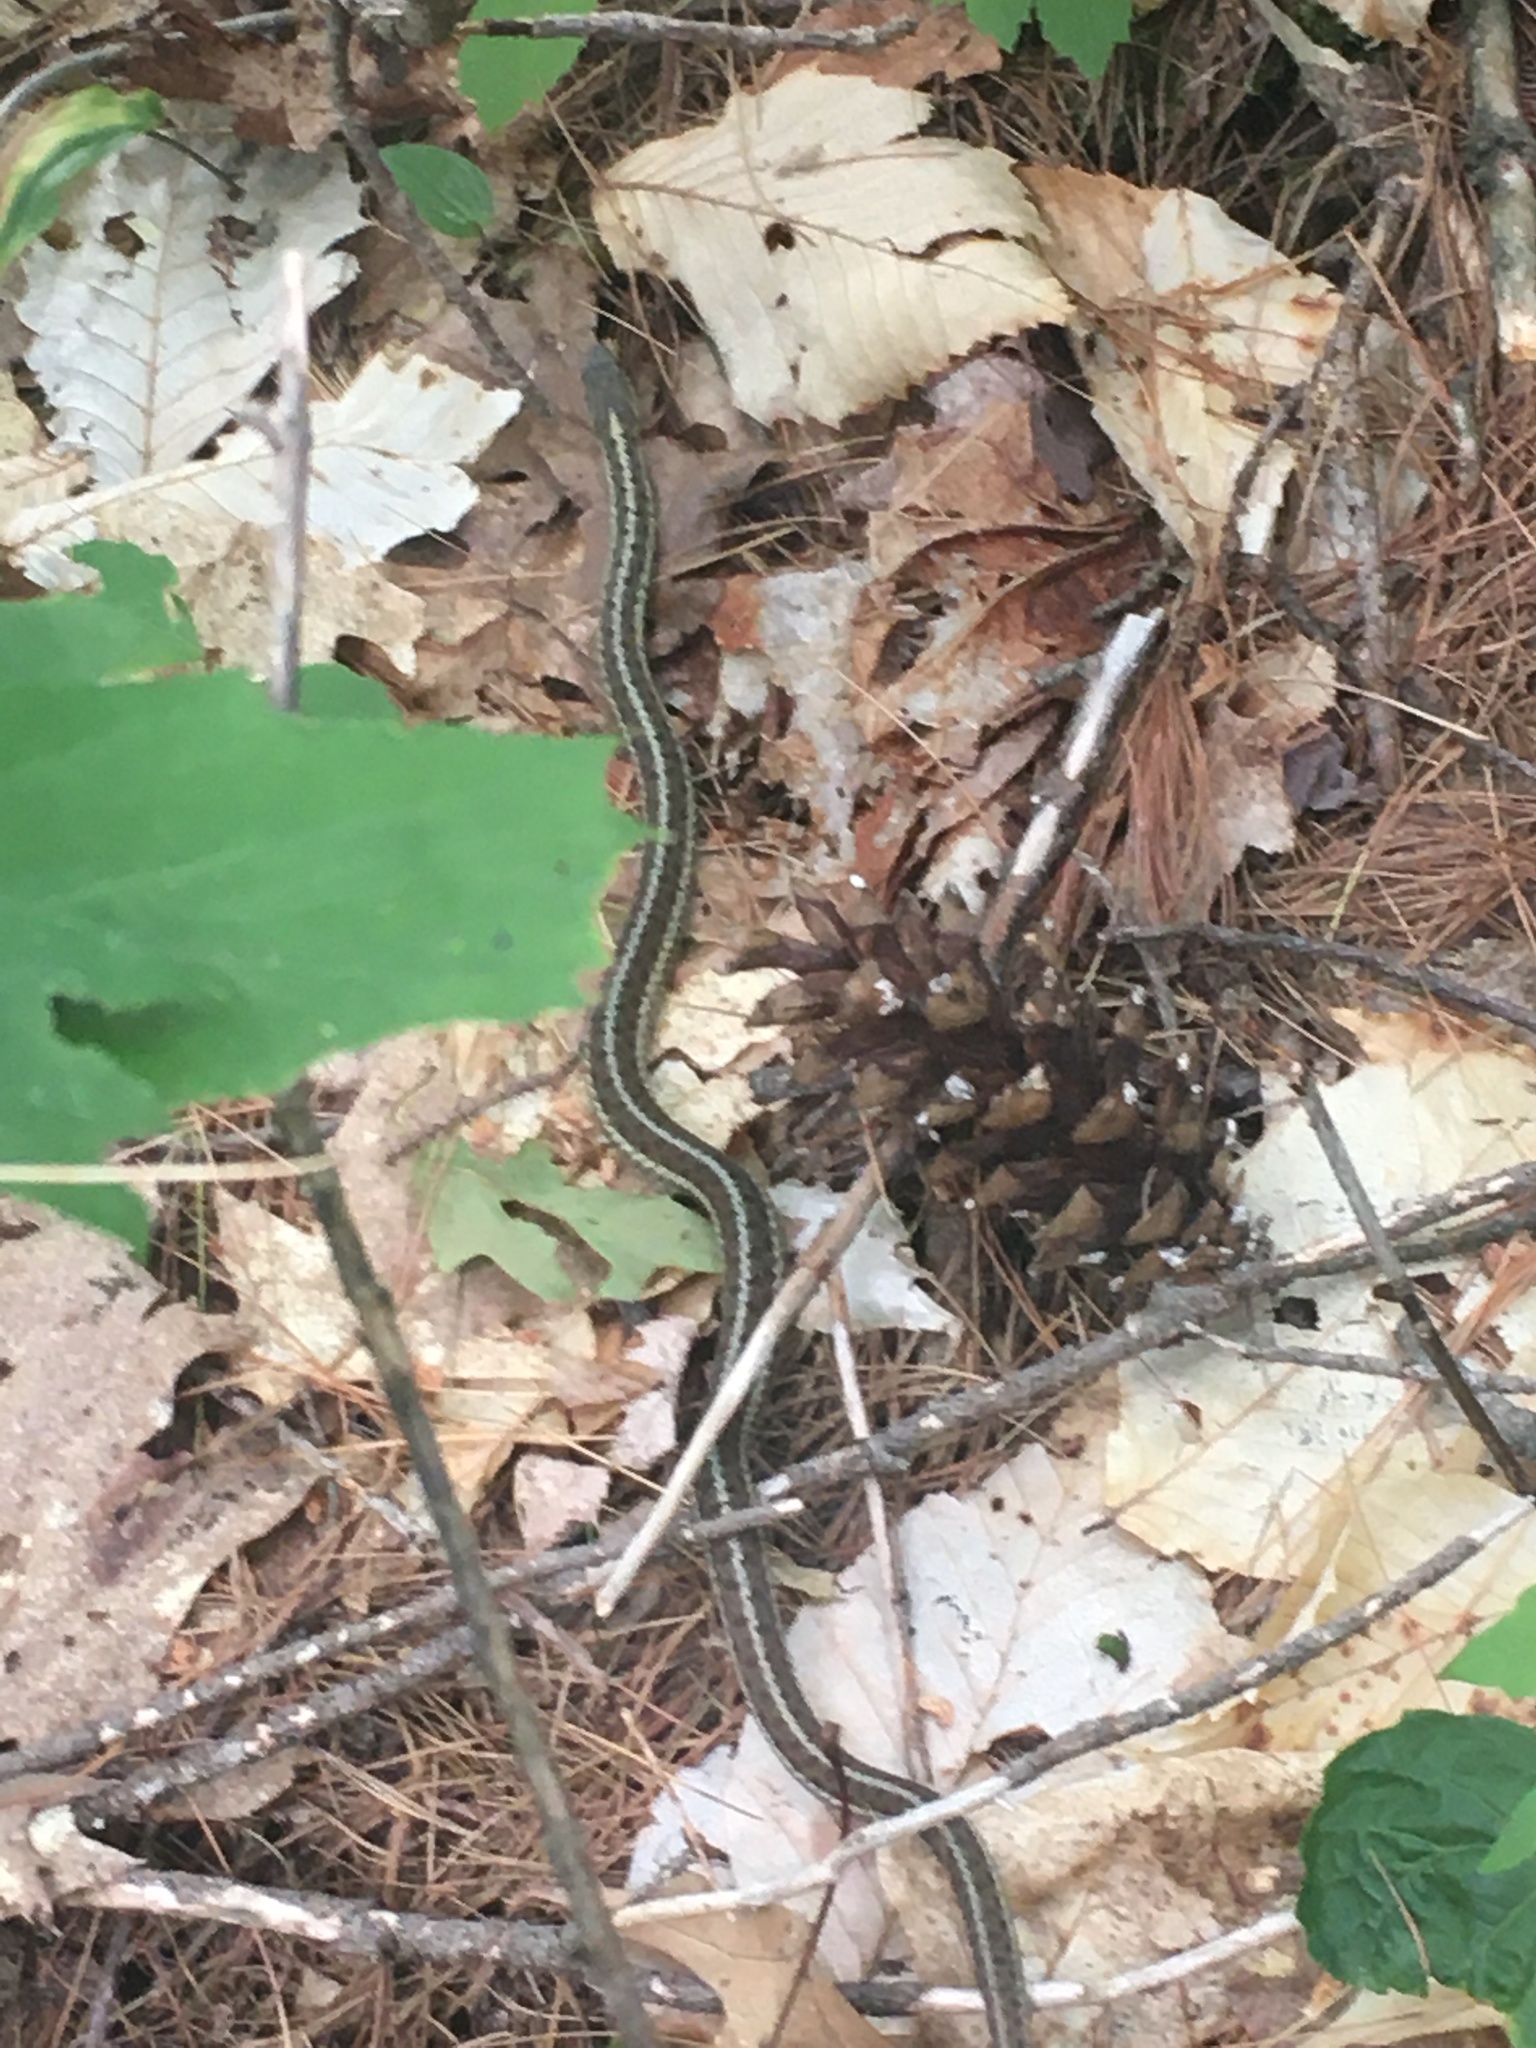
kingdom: Animalia
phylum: Chordata
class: Squamata
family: Colubridae
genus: Thamnophis
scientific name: Thamnophis sirtalis
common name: Common garter snake
